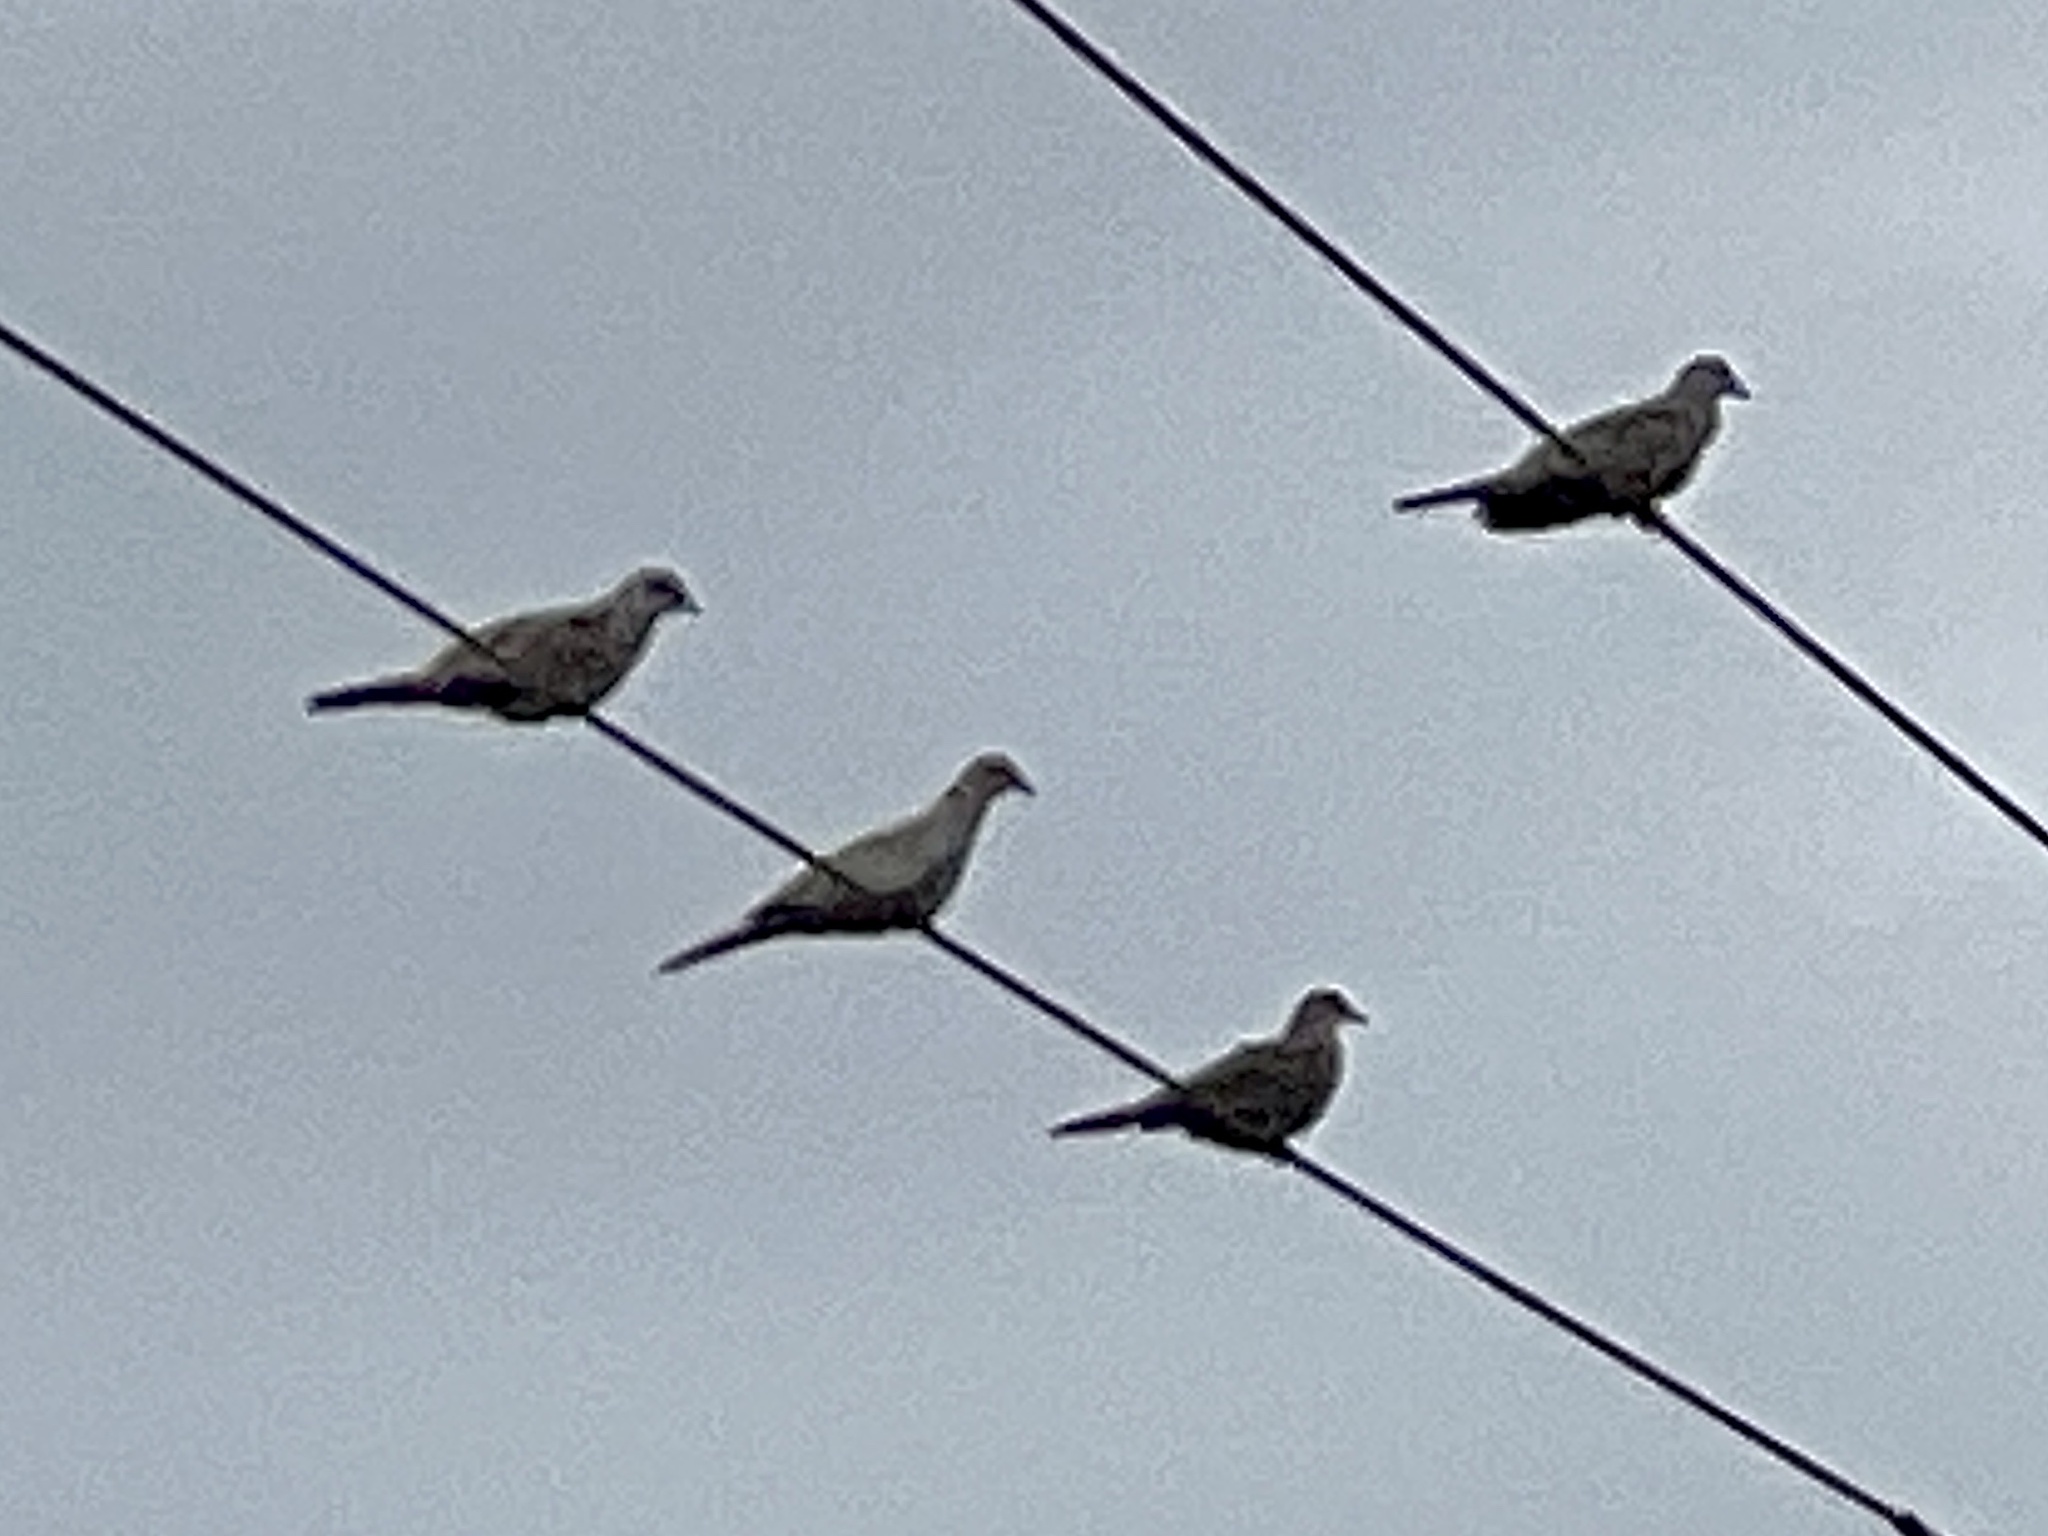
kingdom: Animalia
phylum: Chordata
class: Aves
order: Columbiformes
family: Columbidae
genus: Streptopelia
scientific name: Streptopelia decaocto
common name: Eurasian collared dove
